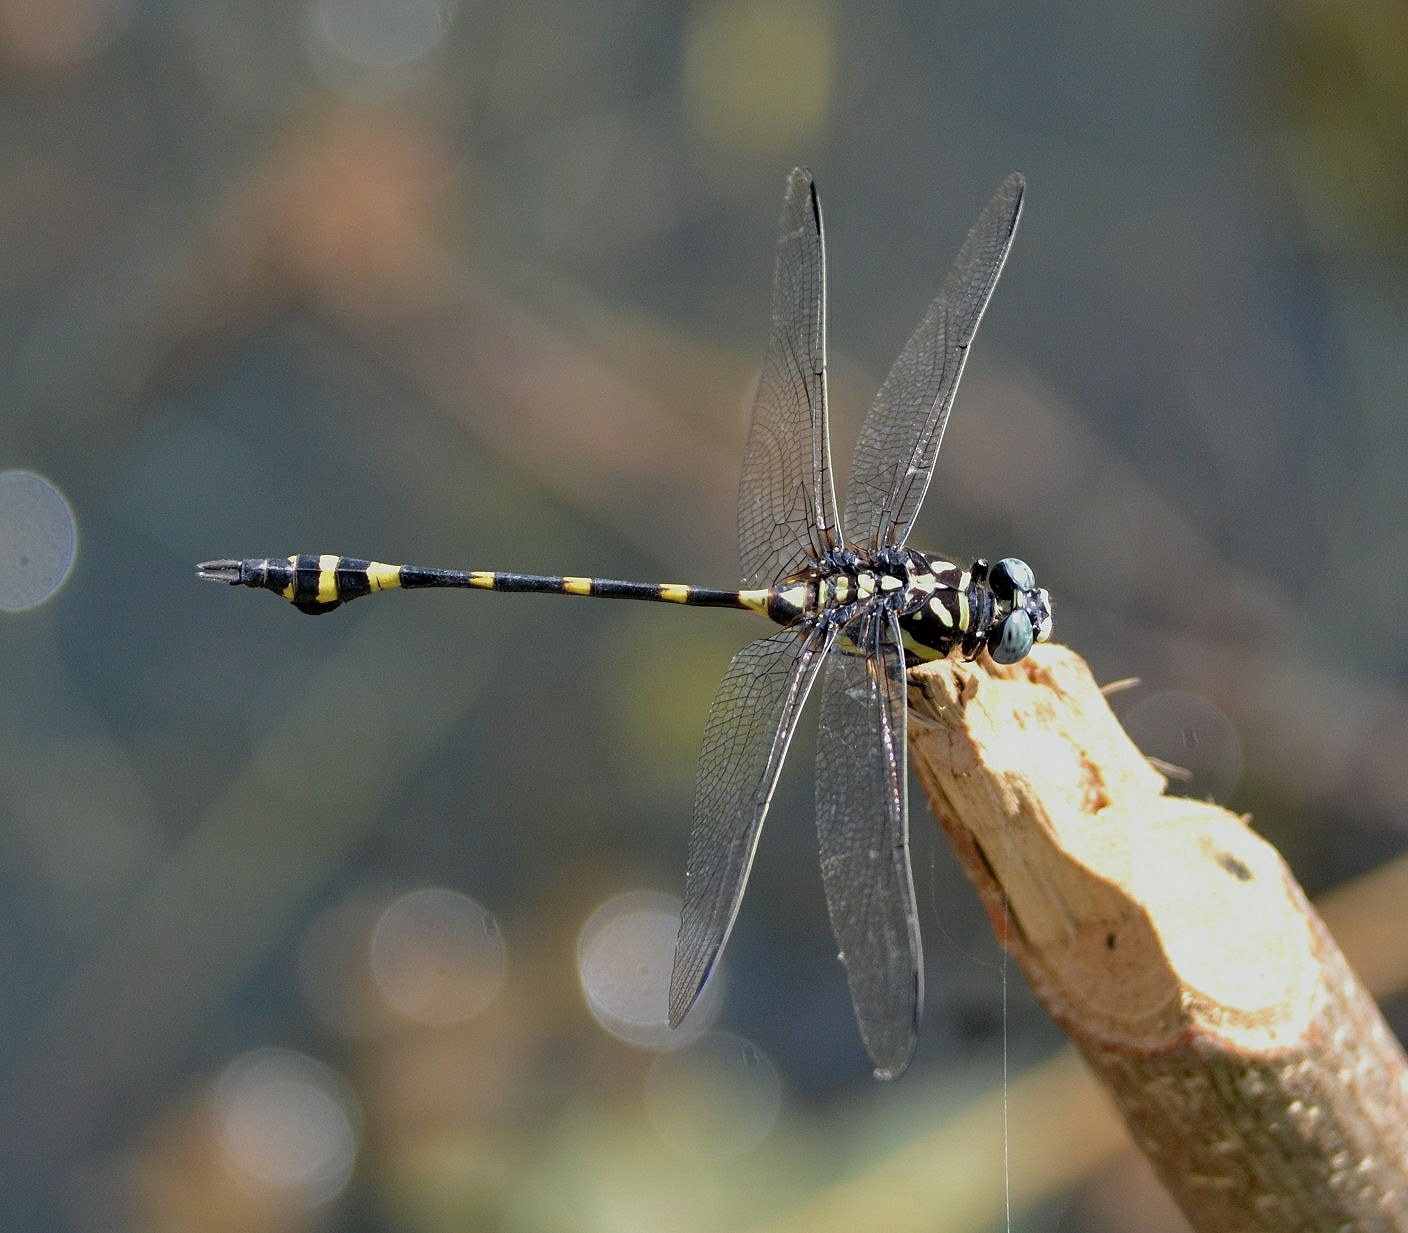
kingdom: Animalia
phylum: Arthropoda
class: Insecta
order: Odonata
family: Gomphidae
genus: Ictinogomphus
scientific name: Ictinogomphus rapax
